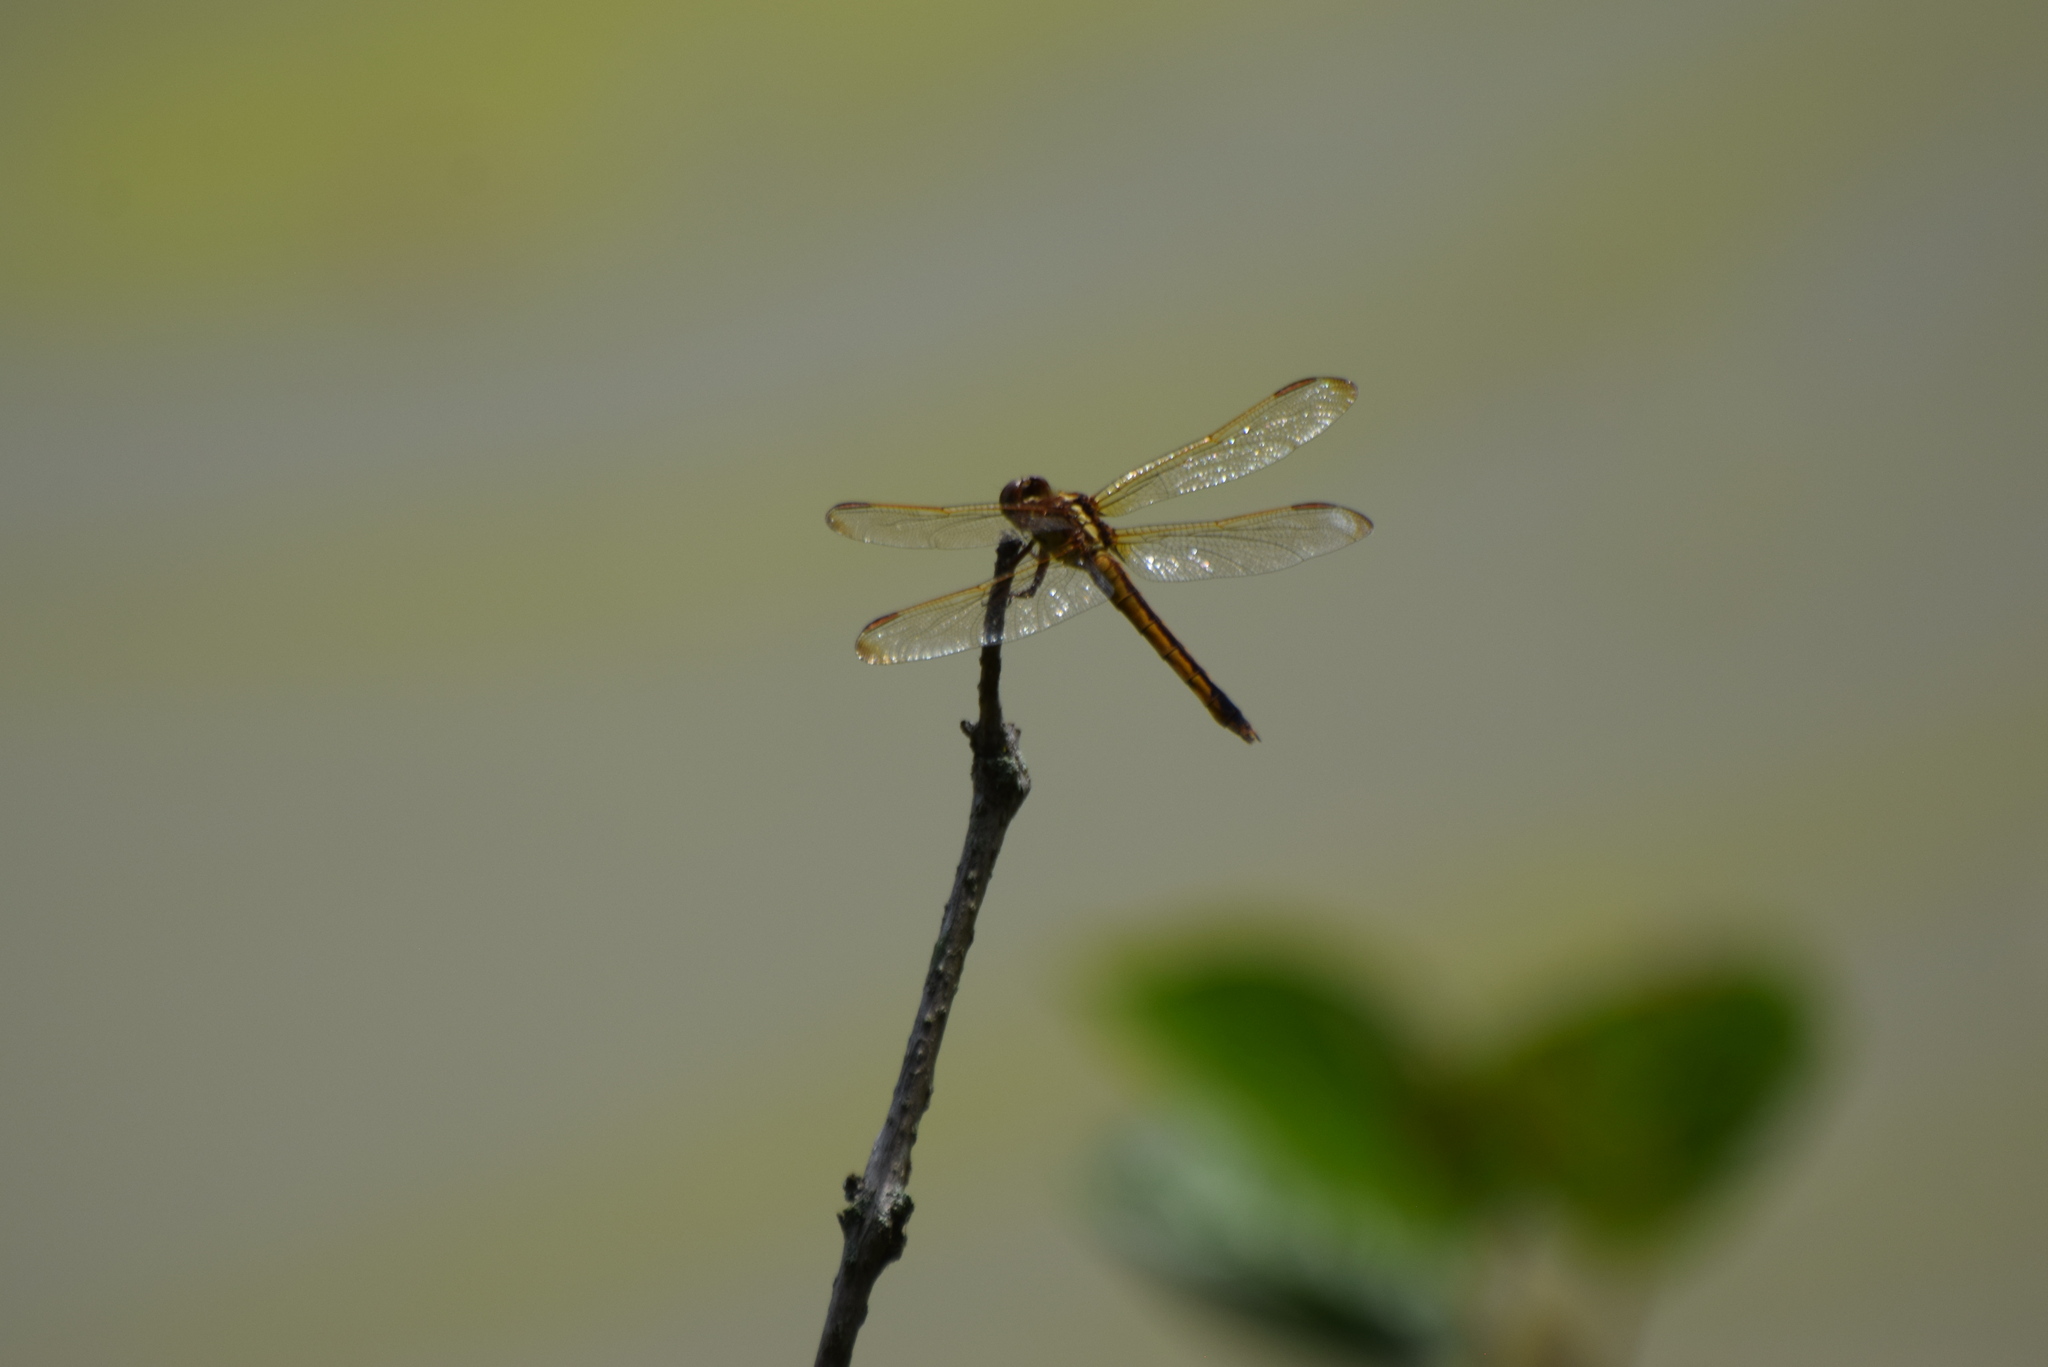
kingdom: Animalia
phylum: Arthropoda
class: Insecta
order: Odonata
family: Libellulidae
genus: Libellula
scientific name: Libellula needhami
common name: Needham's skimmer
